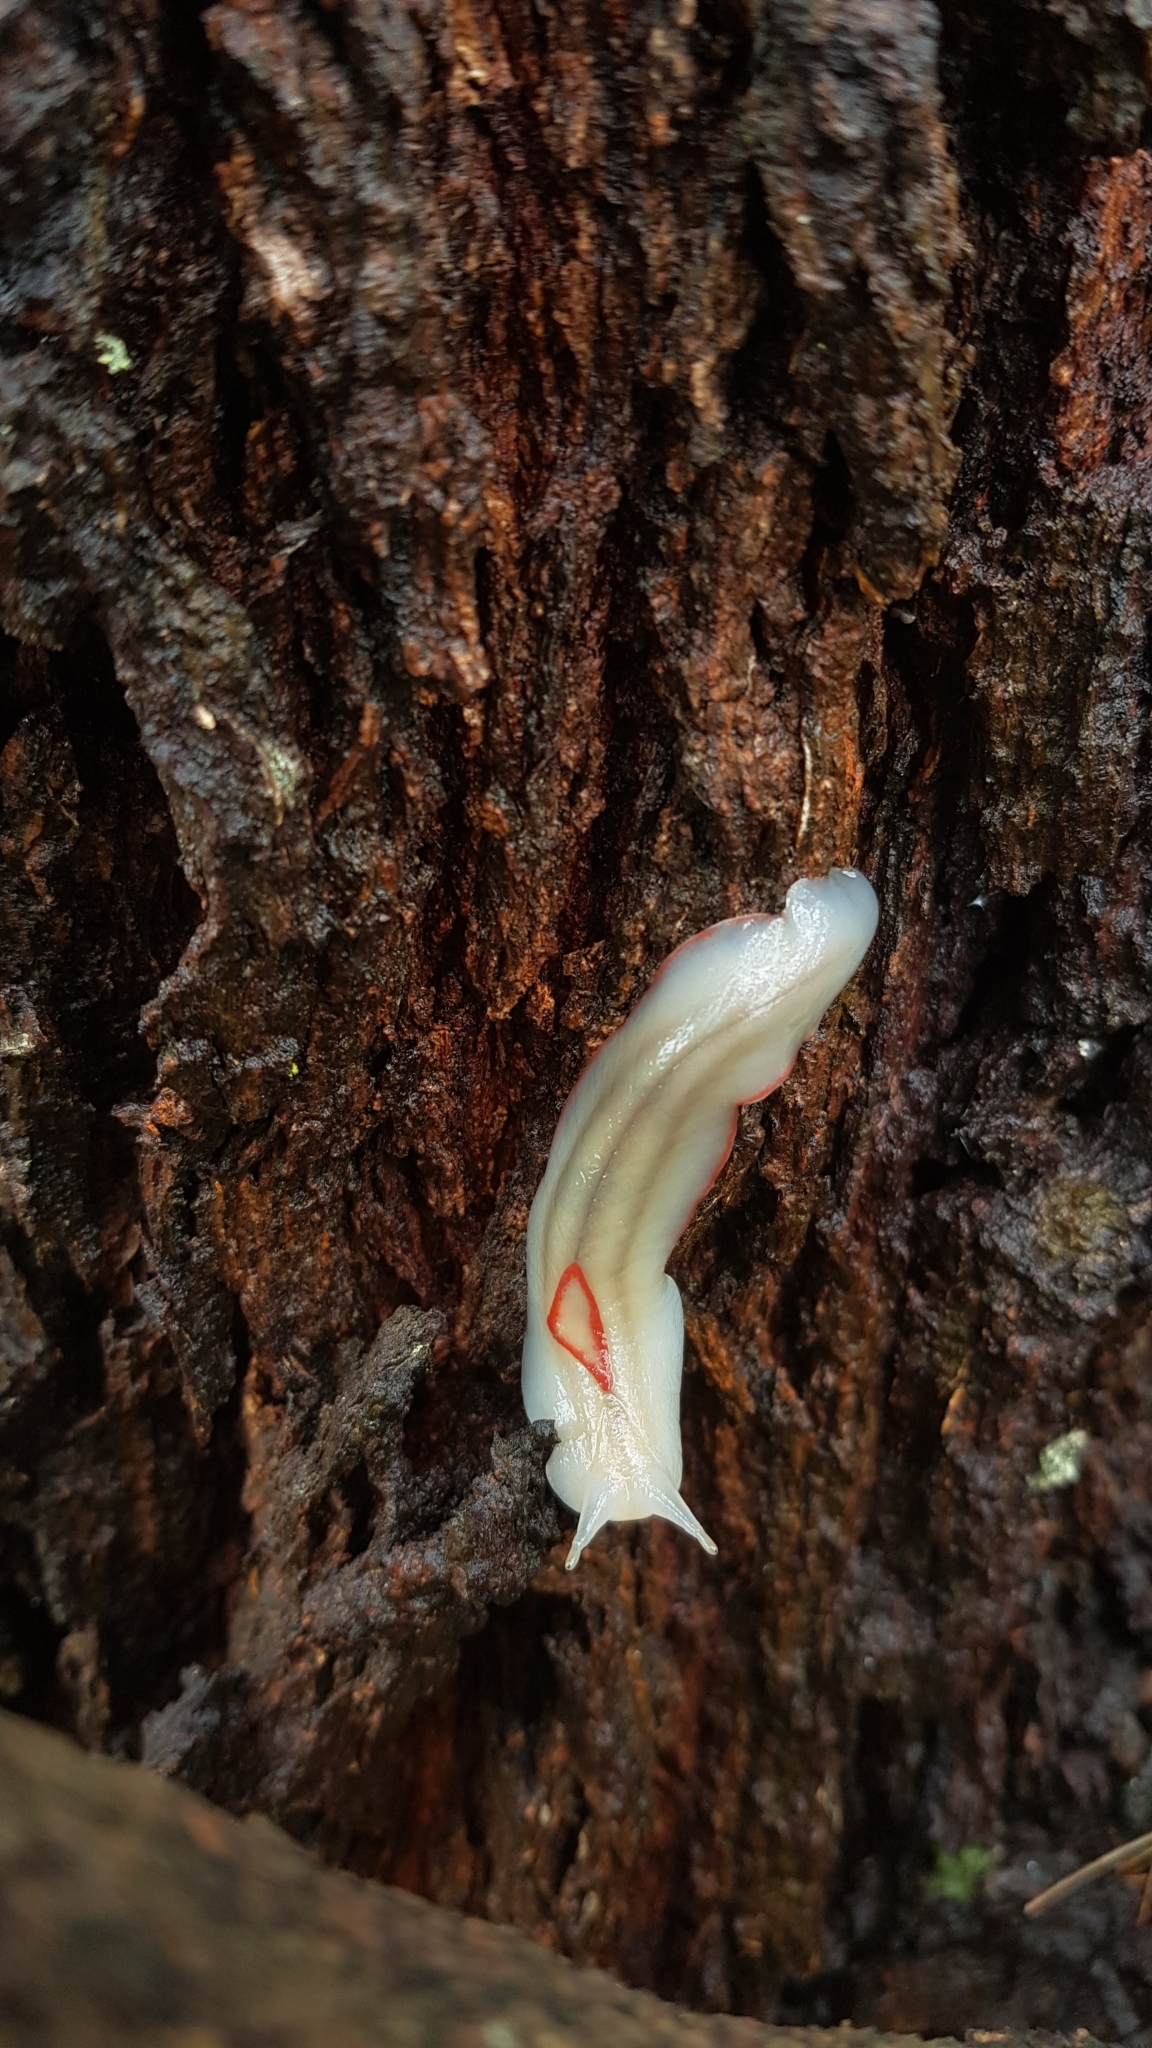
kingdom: Animalia
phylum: Mollusca
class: Gastropoda
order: Stylommatophora
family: Athoracophoridae
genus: Triboniophorus
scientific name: Triboniophorus graeffei
